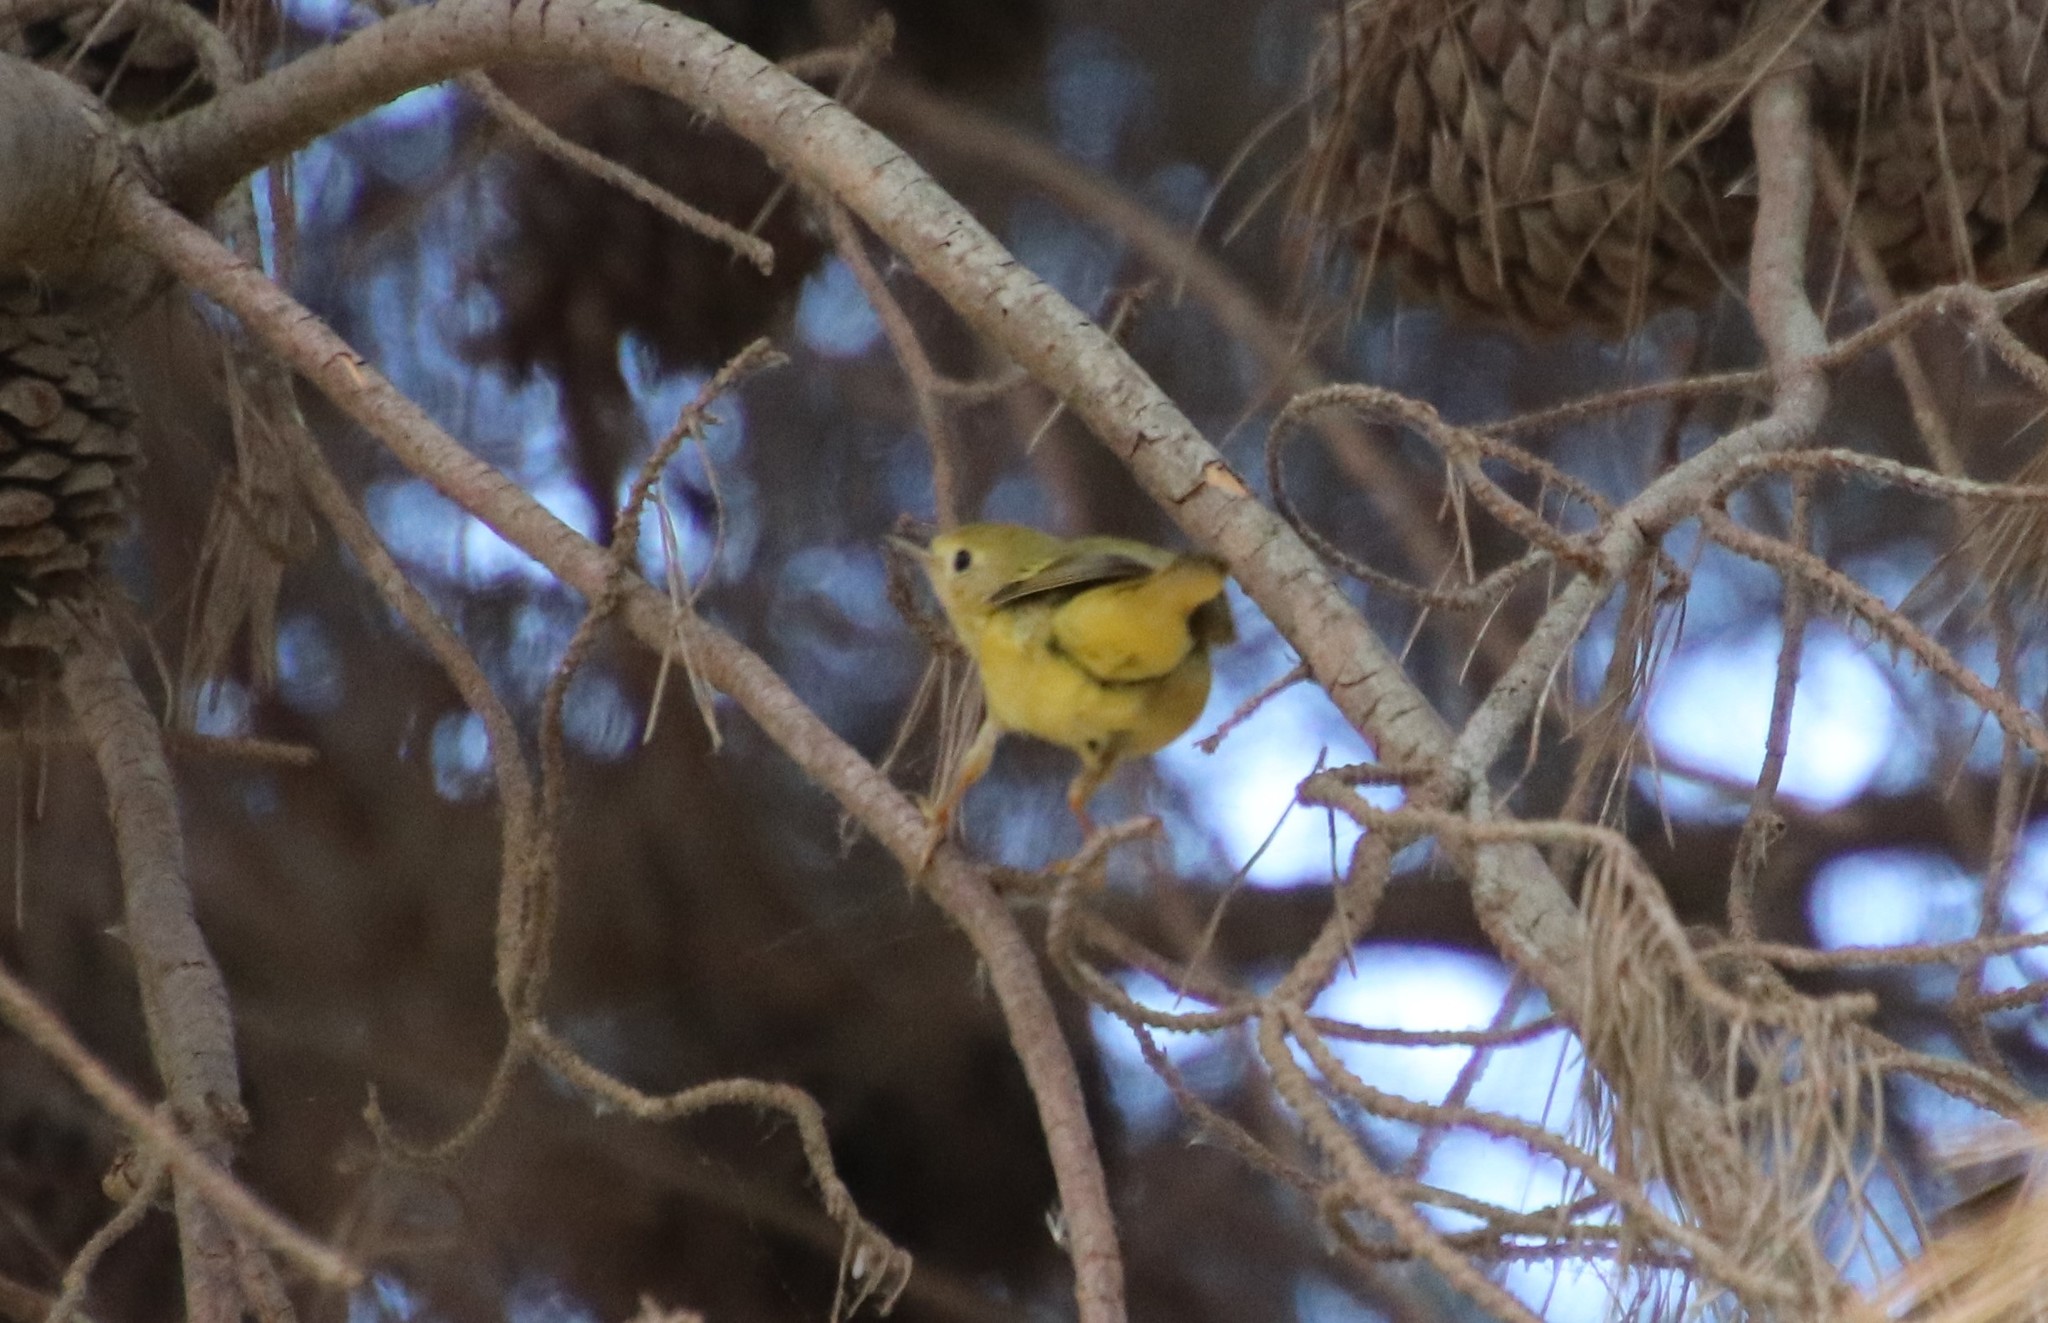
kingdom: Animalia
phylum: Chordata
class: Aves
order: Passeriformes
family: Parulidae
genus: Setophaga
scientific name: Setophaga petechia
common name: Yellow warbler
